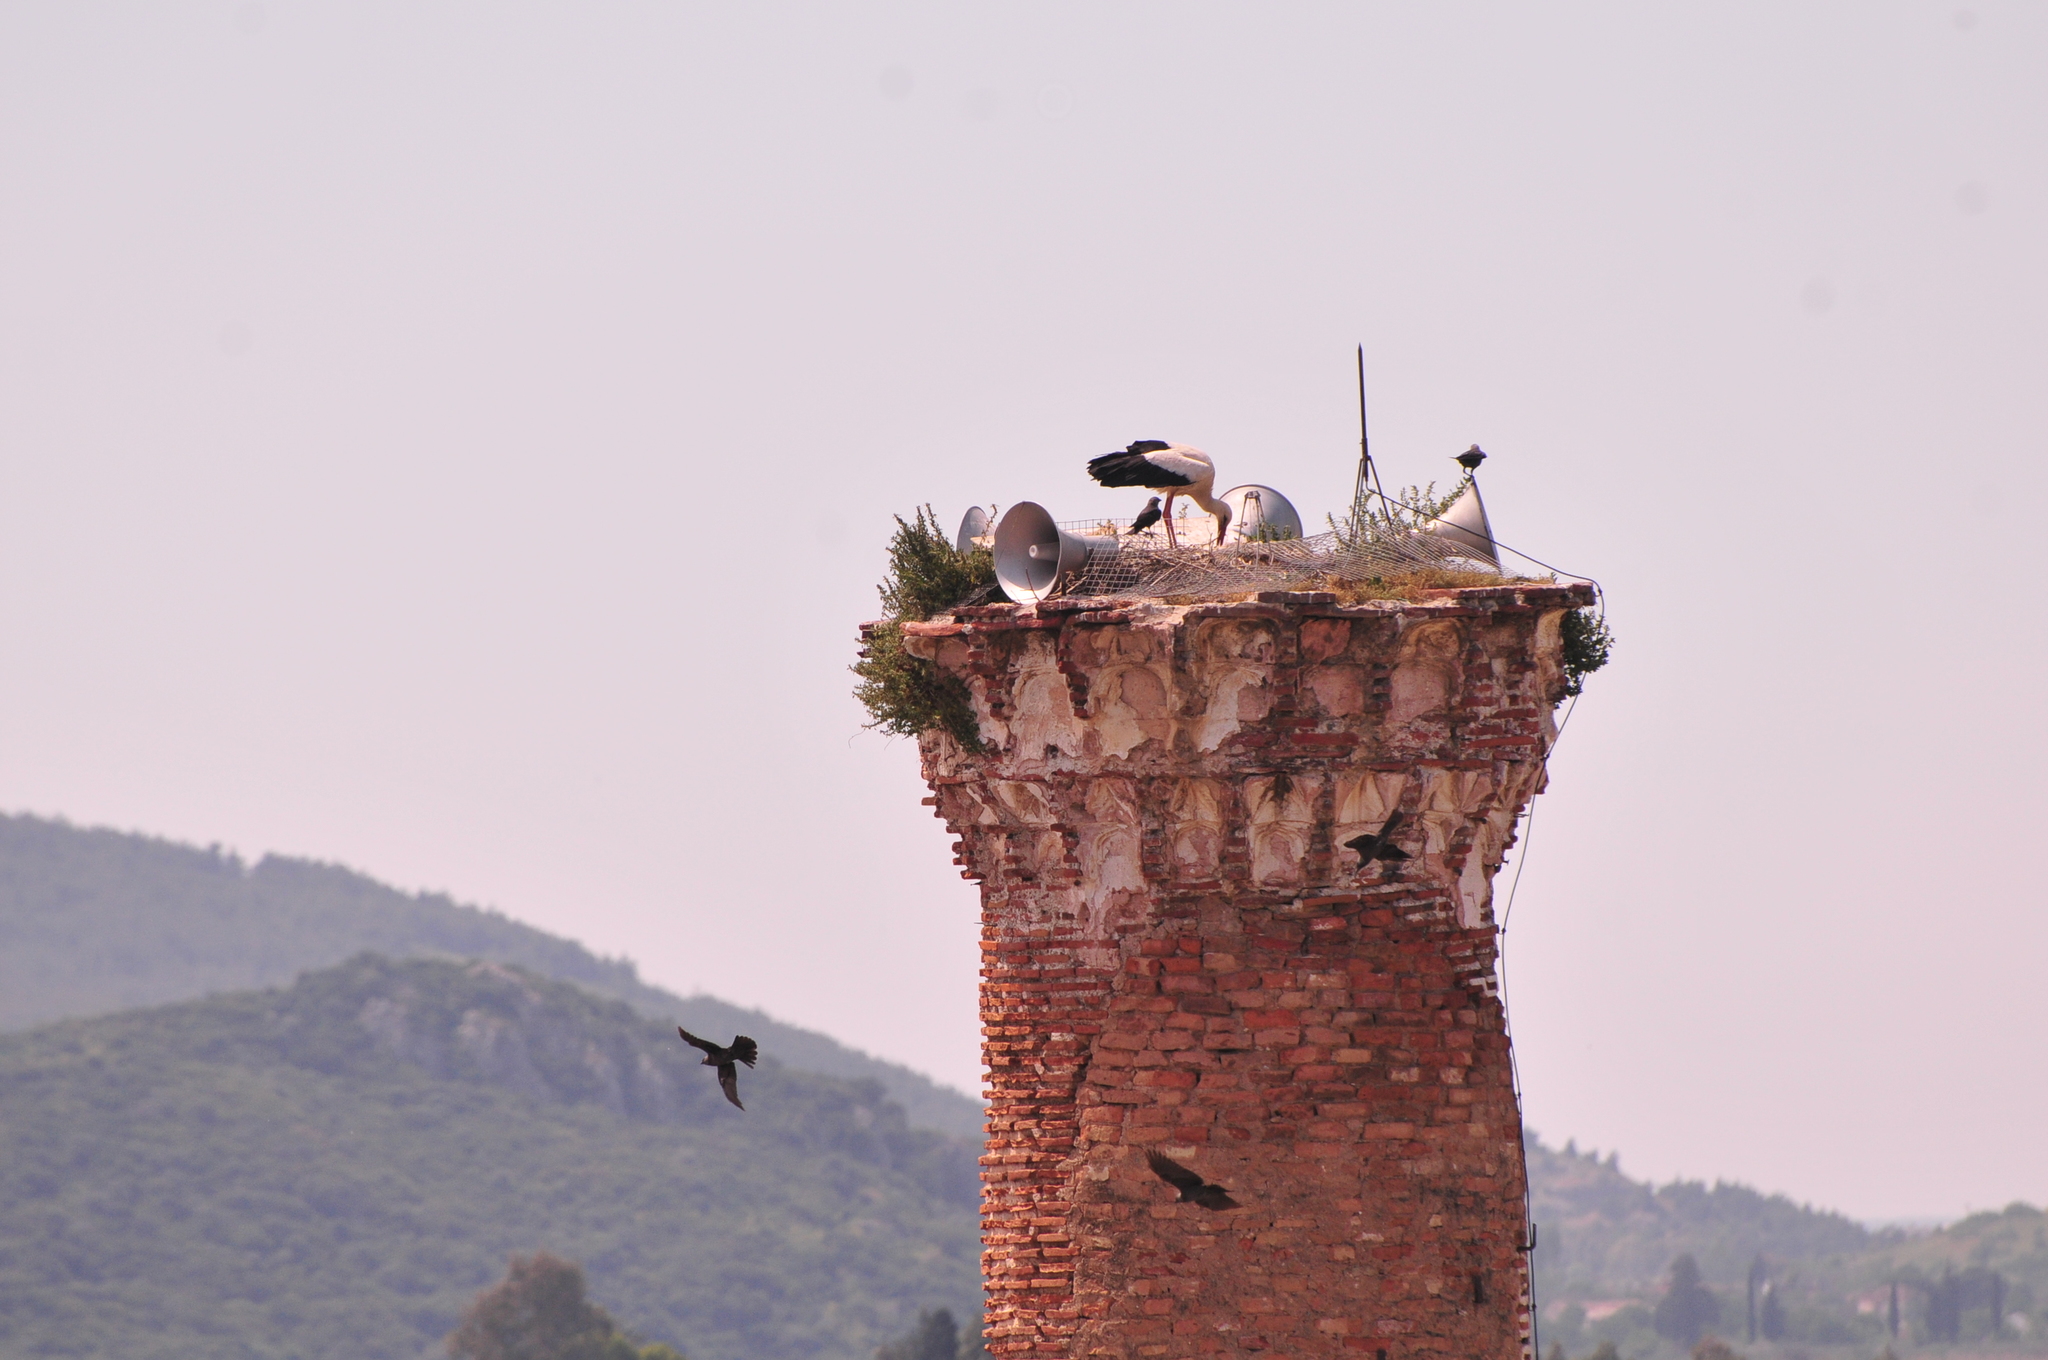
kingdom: Animalia
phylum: Chordata
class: Aves
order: Ciconiiformes
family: Ciconiidae
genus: Ciconia
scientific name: Ciconia ciconia
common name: White stork
